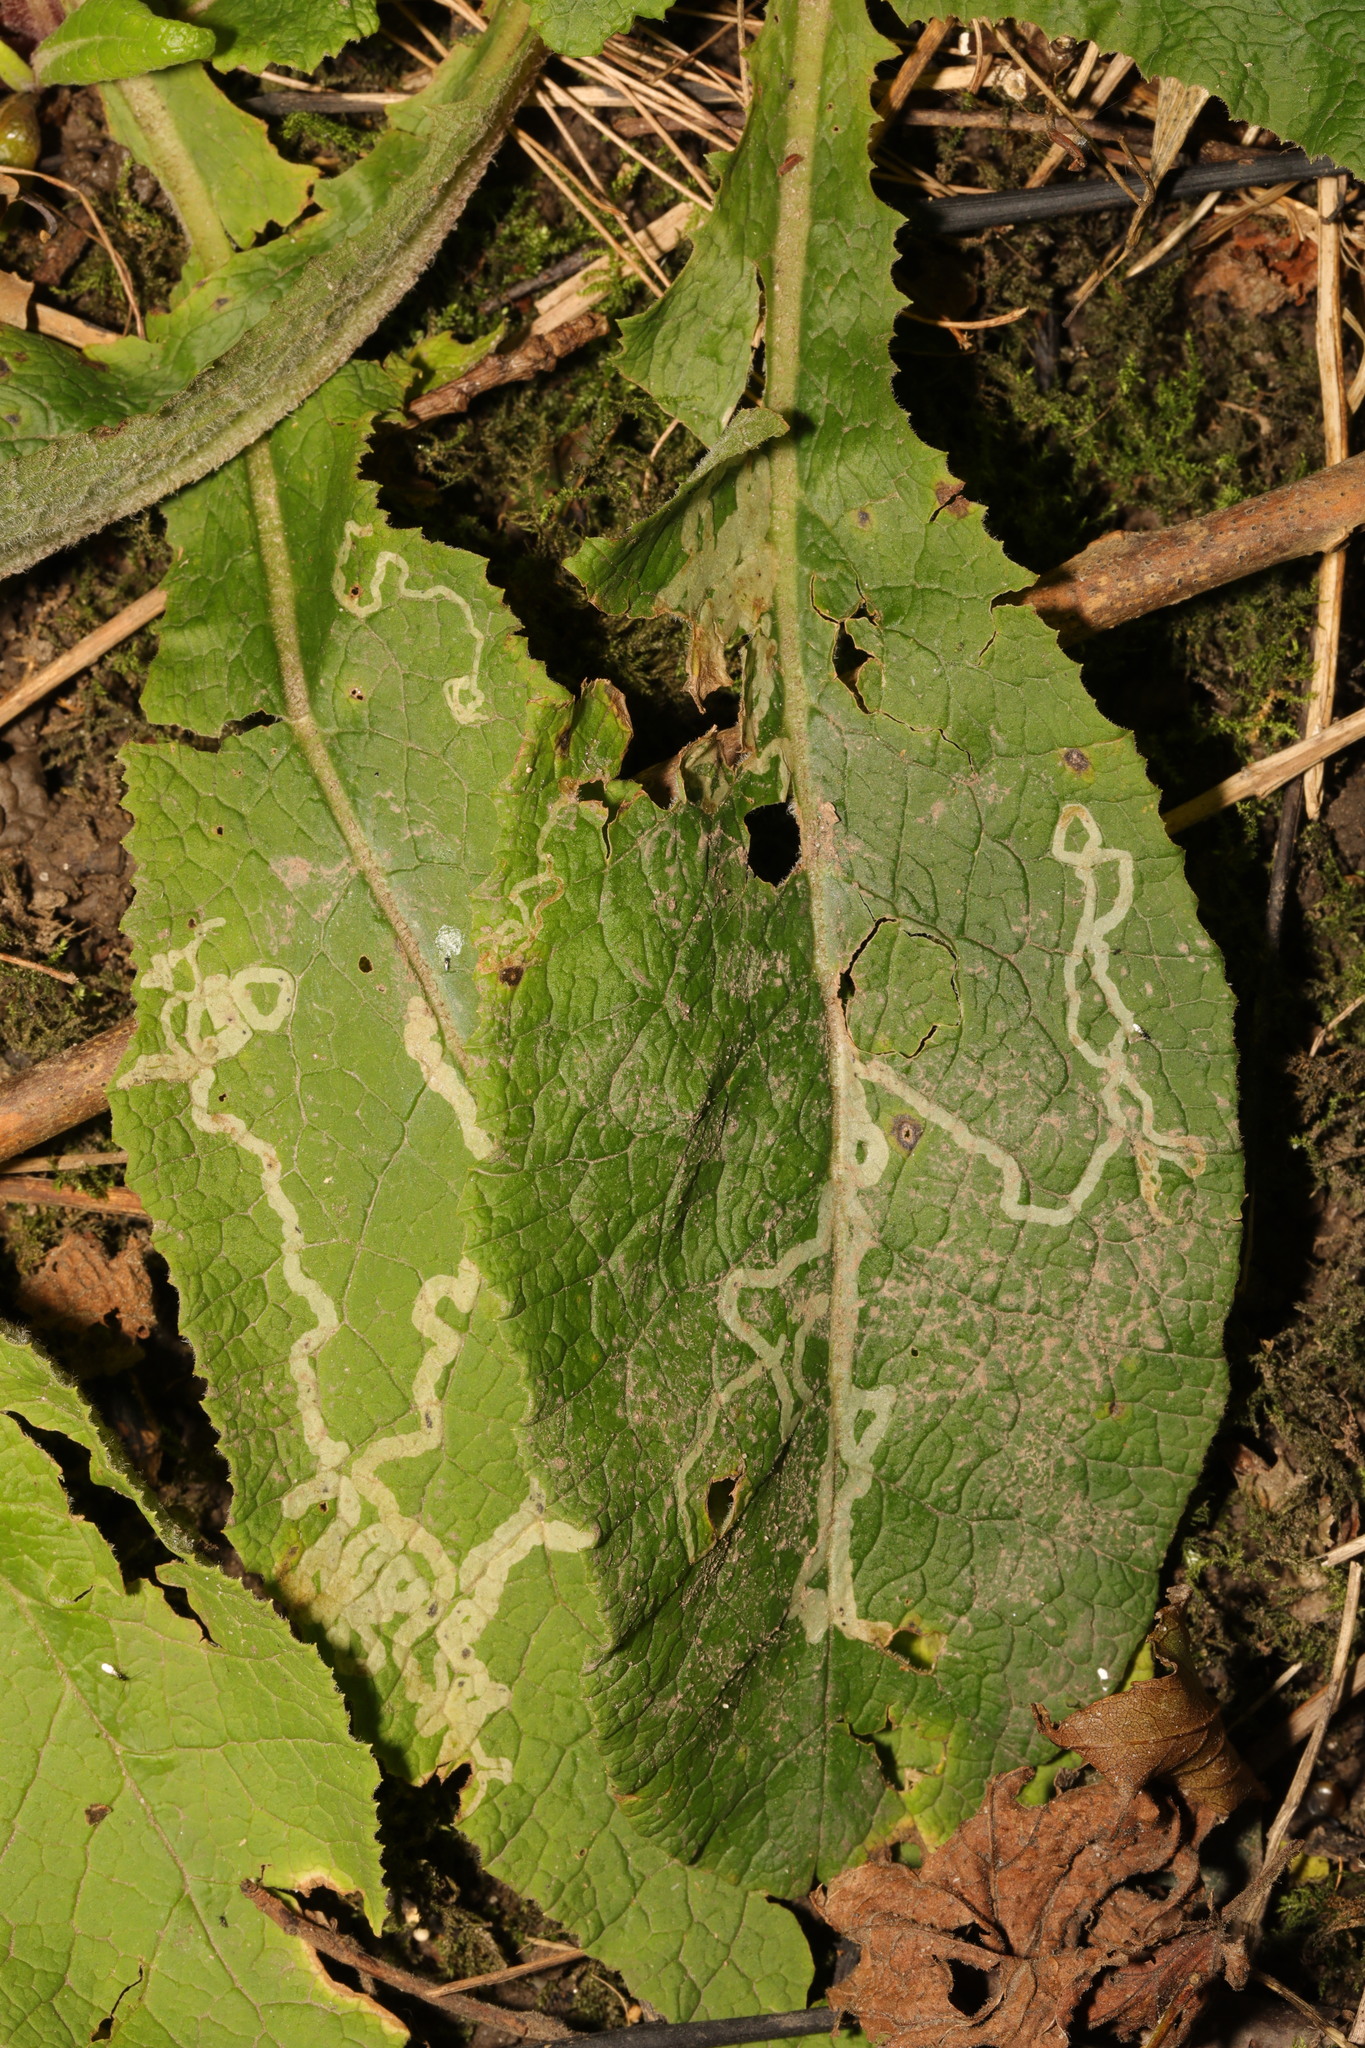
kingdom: Animalia
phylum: Arthropoda
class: Insecta
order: Diptera
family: Agromyzidae
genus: Phytomyza
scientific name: Phytomyza primulae
